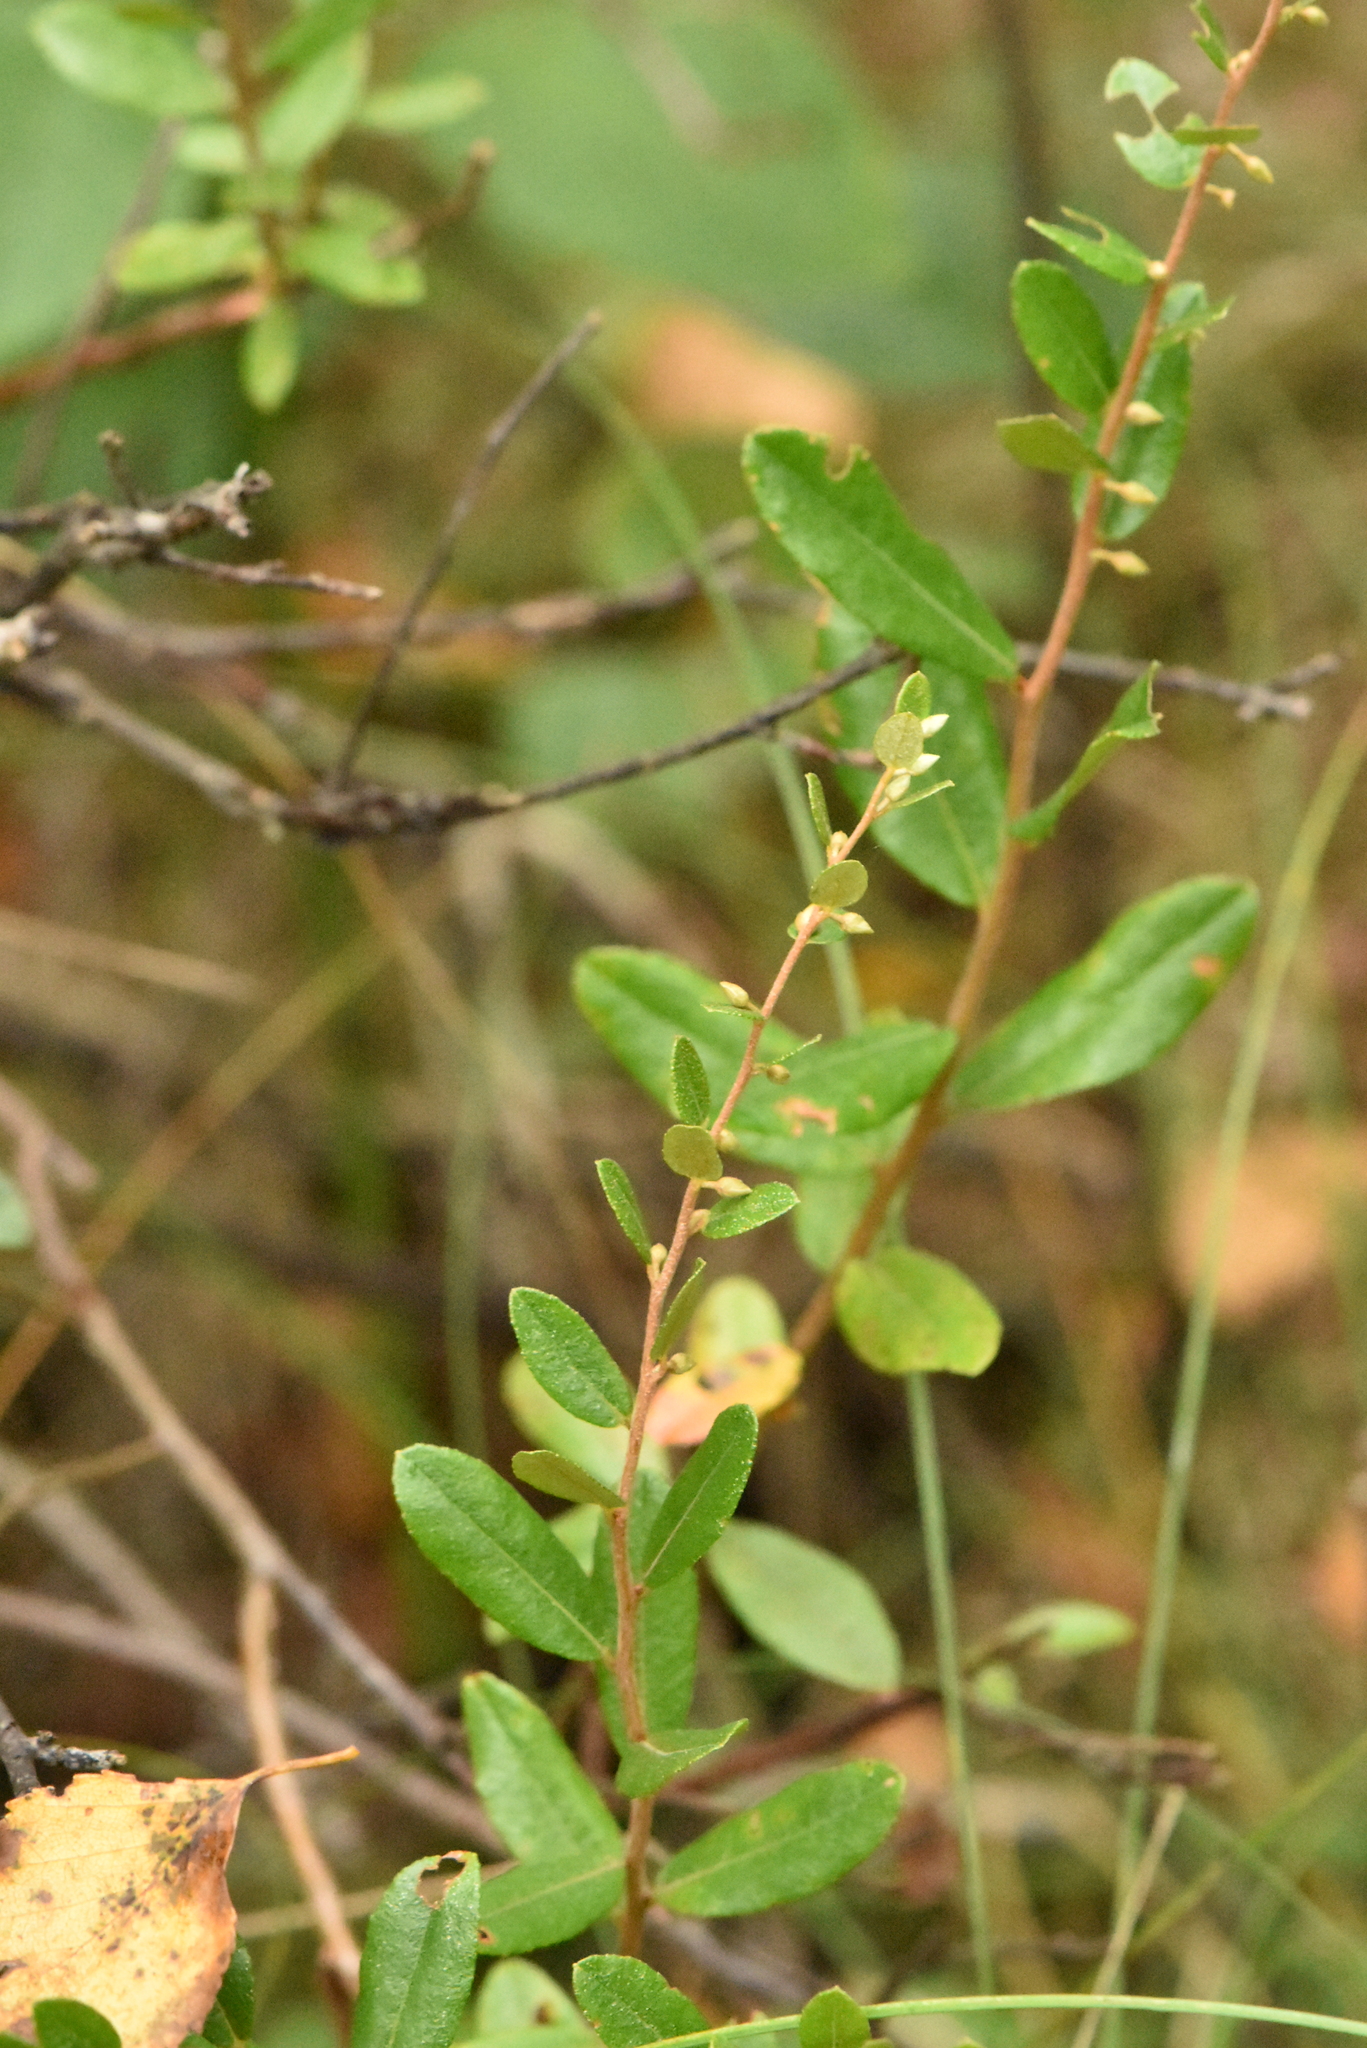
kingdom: Plantae
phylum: Tracheophyta
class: Magnoliopsida
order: Ericales
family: Ericaceae
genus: Chamaedaphne
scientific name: Chamaedaphne calyculata
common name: Leatherleaf
